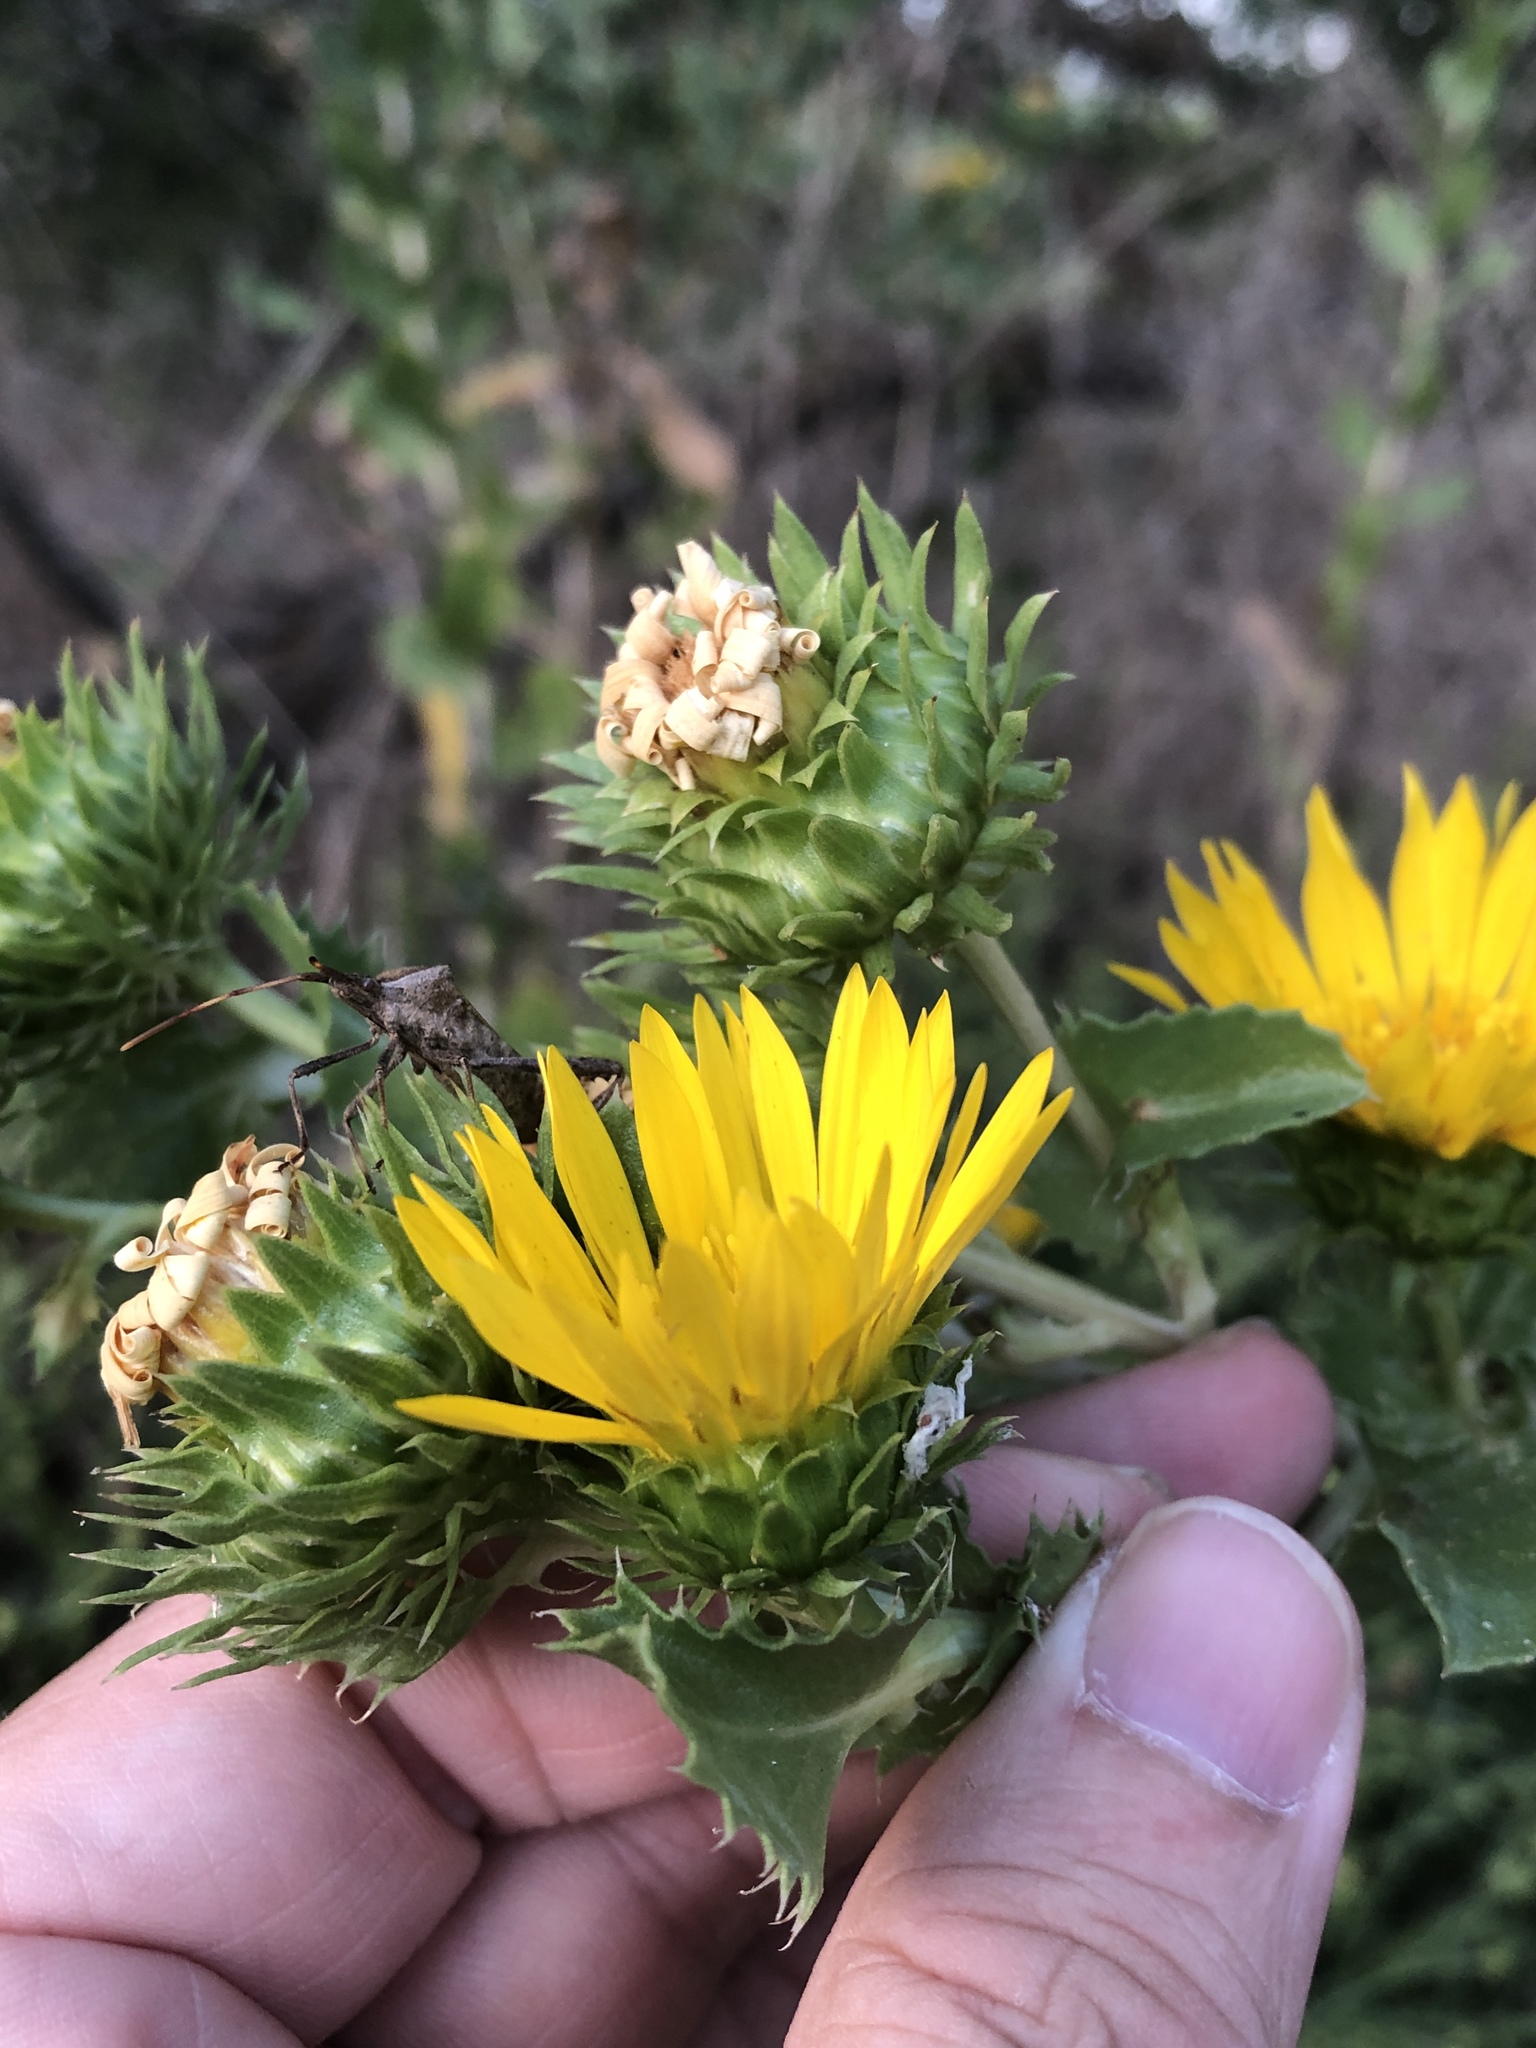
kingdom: Plantae
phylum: Tracheophyta
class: Magnoliopsida
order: Asterales
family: Asteraceae
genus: Grindelia
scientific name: Grindelia ciliata
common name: Goldenweed
